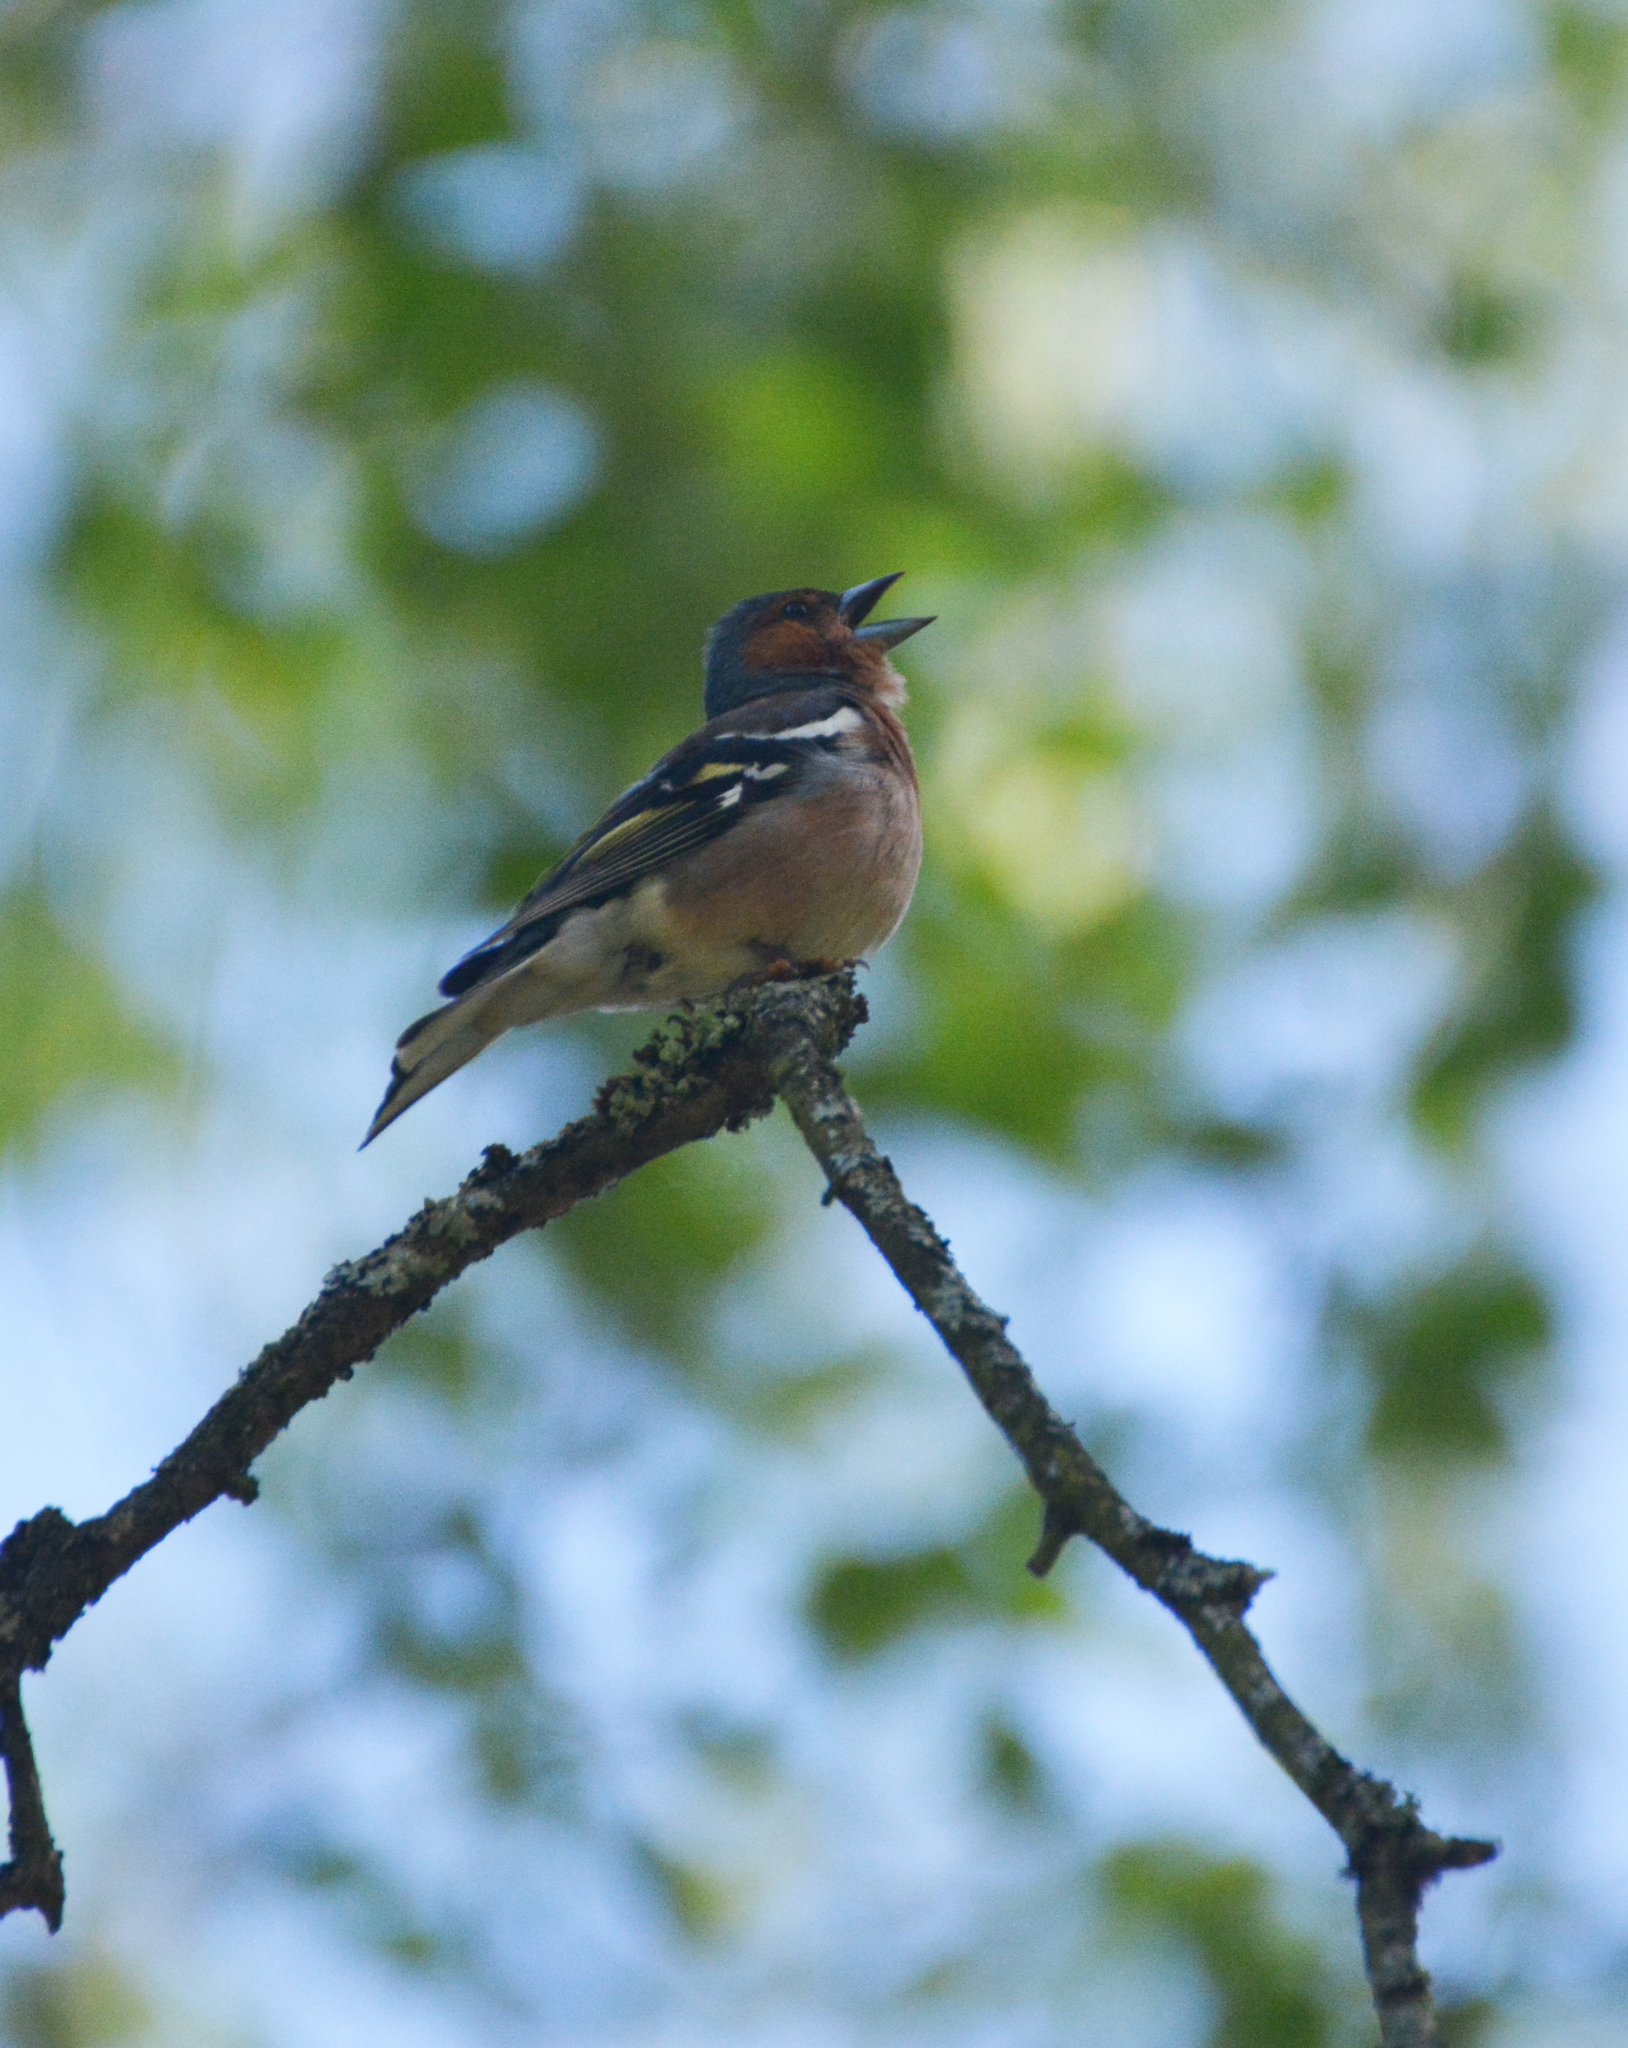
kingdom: Animalia
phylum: Chordata
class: Aves
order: Passeriformes
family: Fringillidae
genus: Fringilla
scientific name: Fringilla coelebs
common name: Common chaffinch
